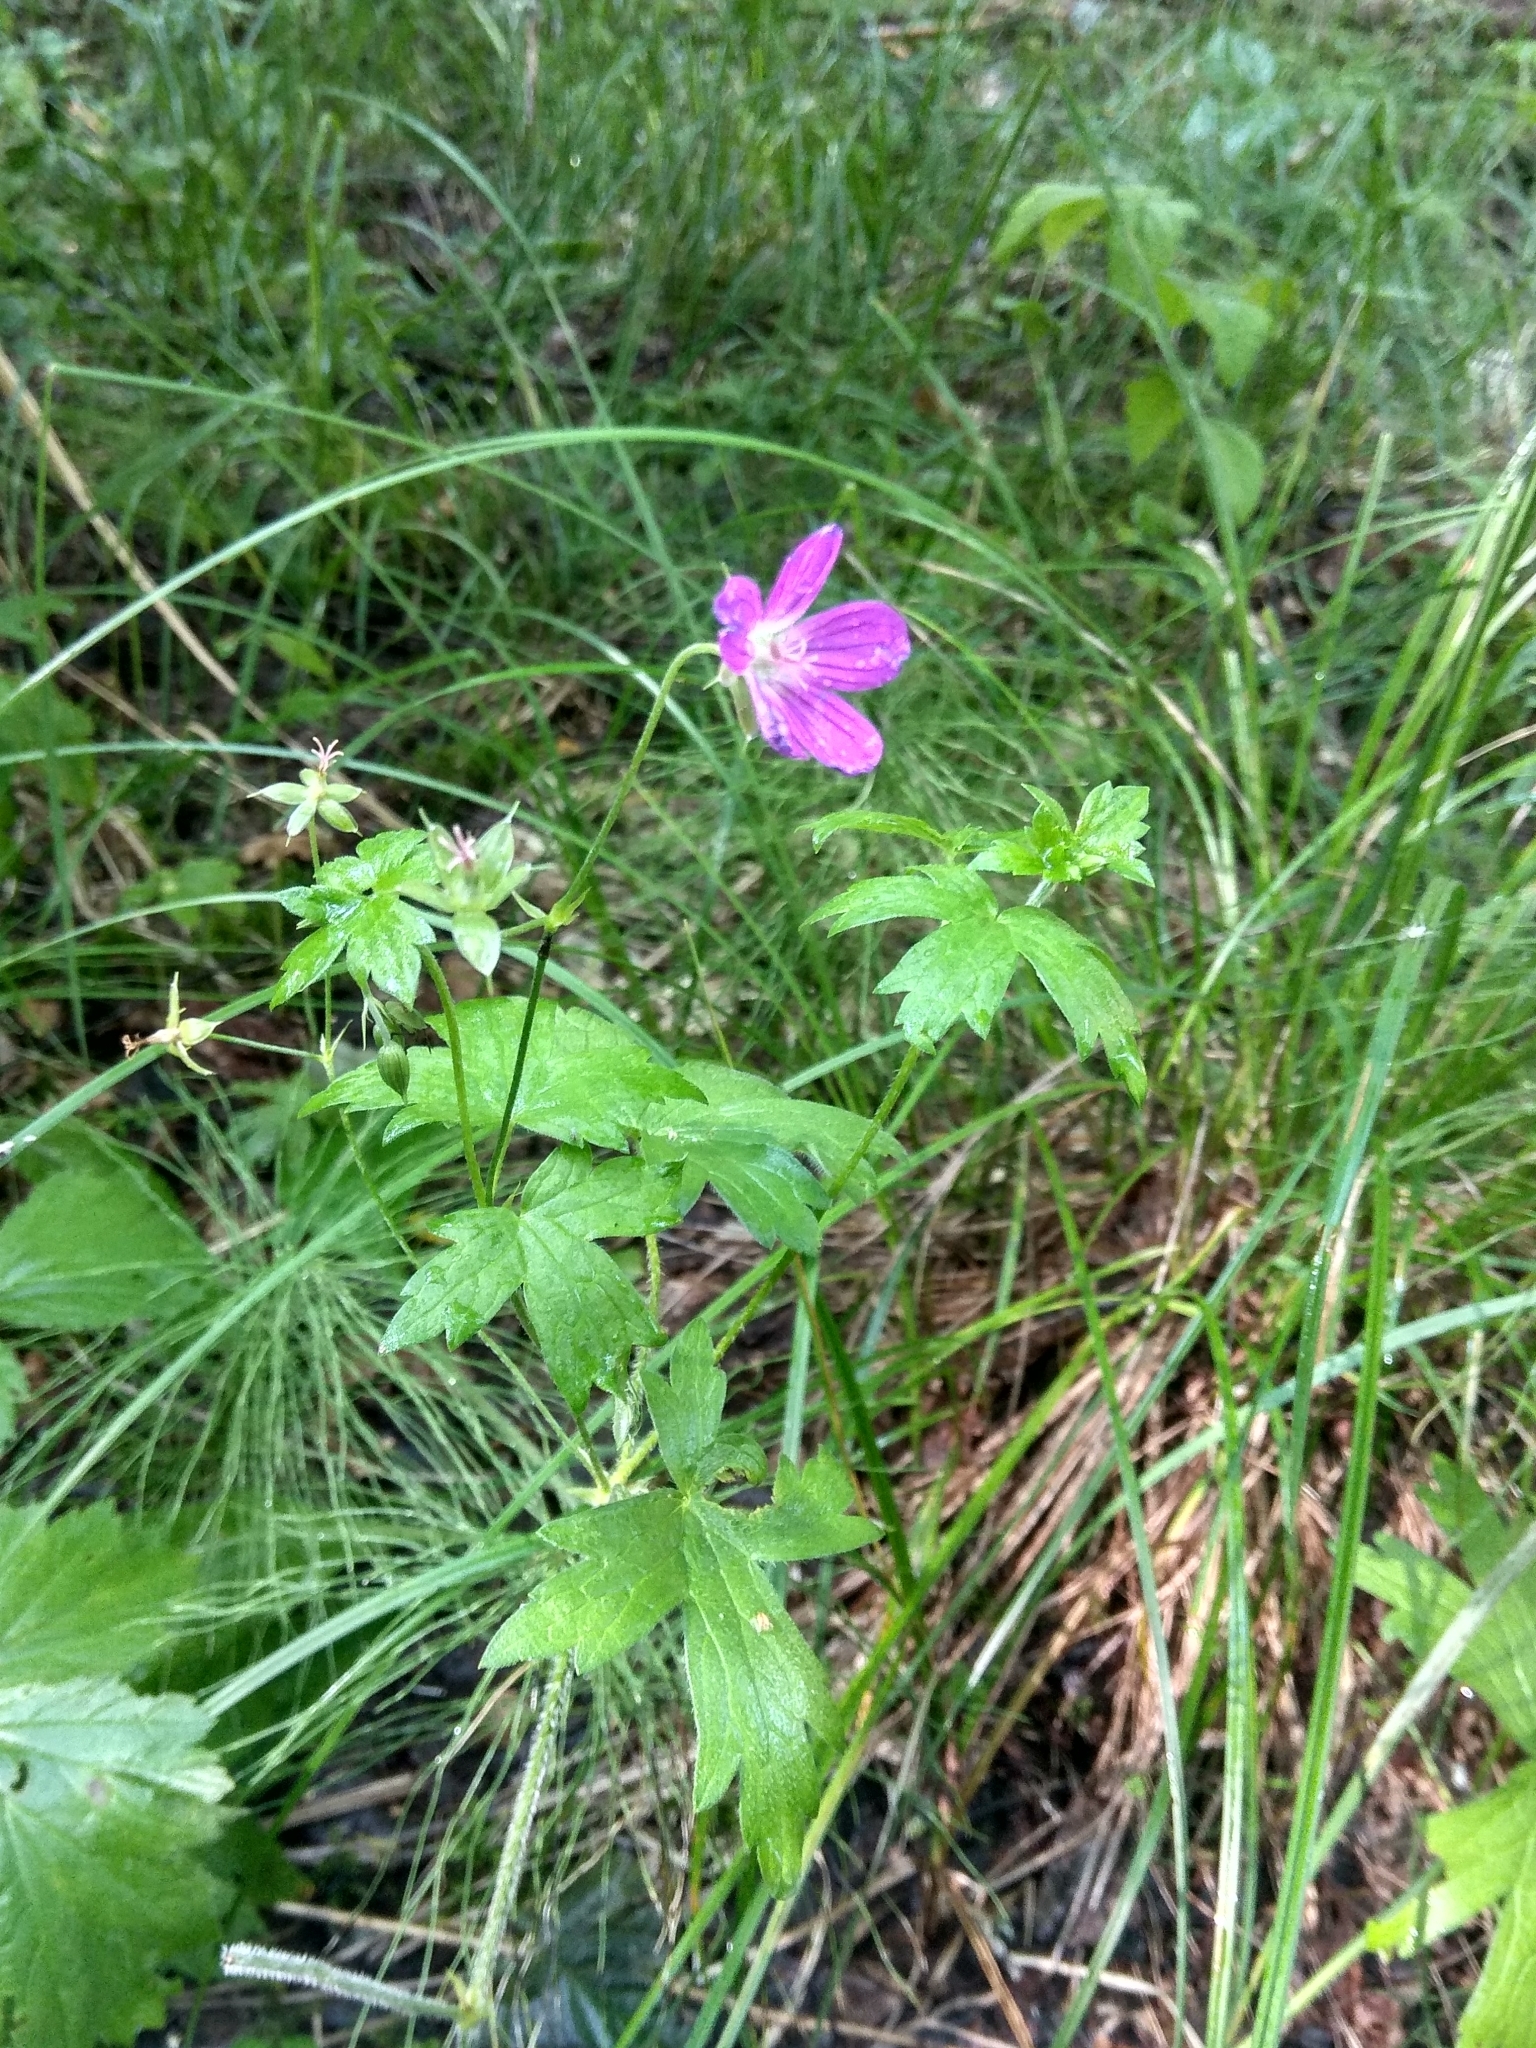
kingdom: Plantae
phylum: Tracheophyta
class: Magnoliopsida
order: Geraniales
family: Geraniaceae
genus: Geranium
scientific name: Geranium palustre
